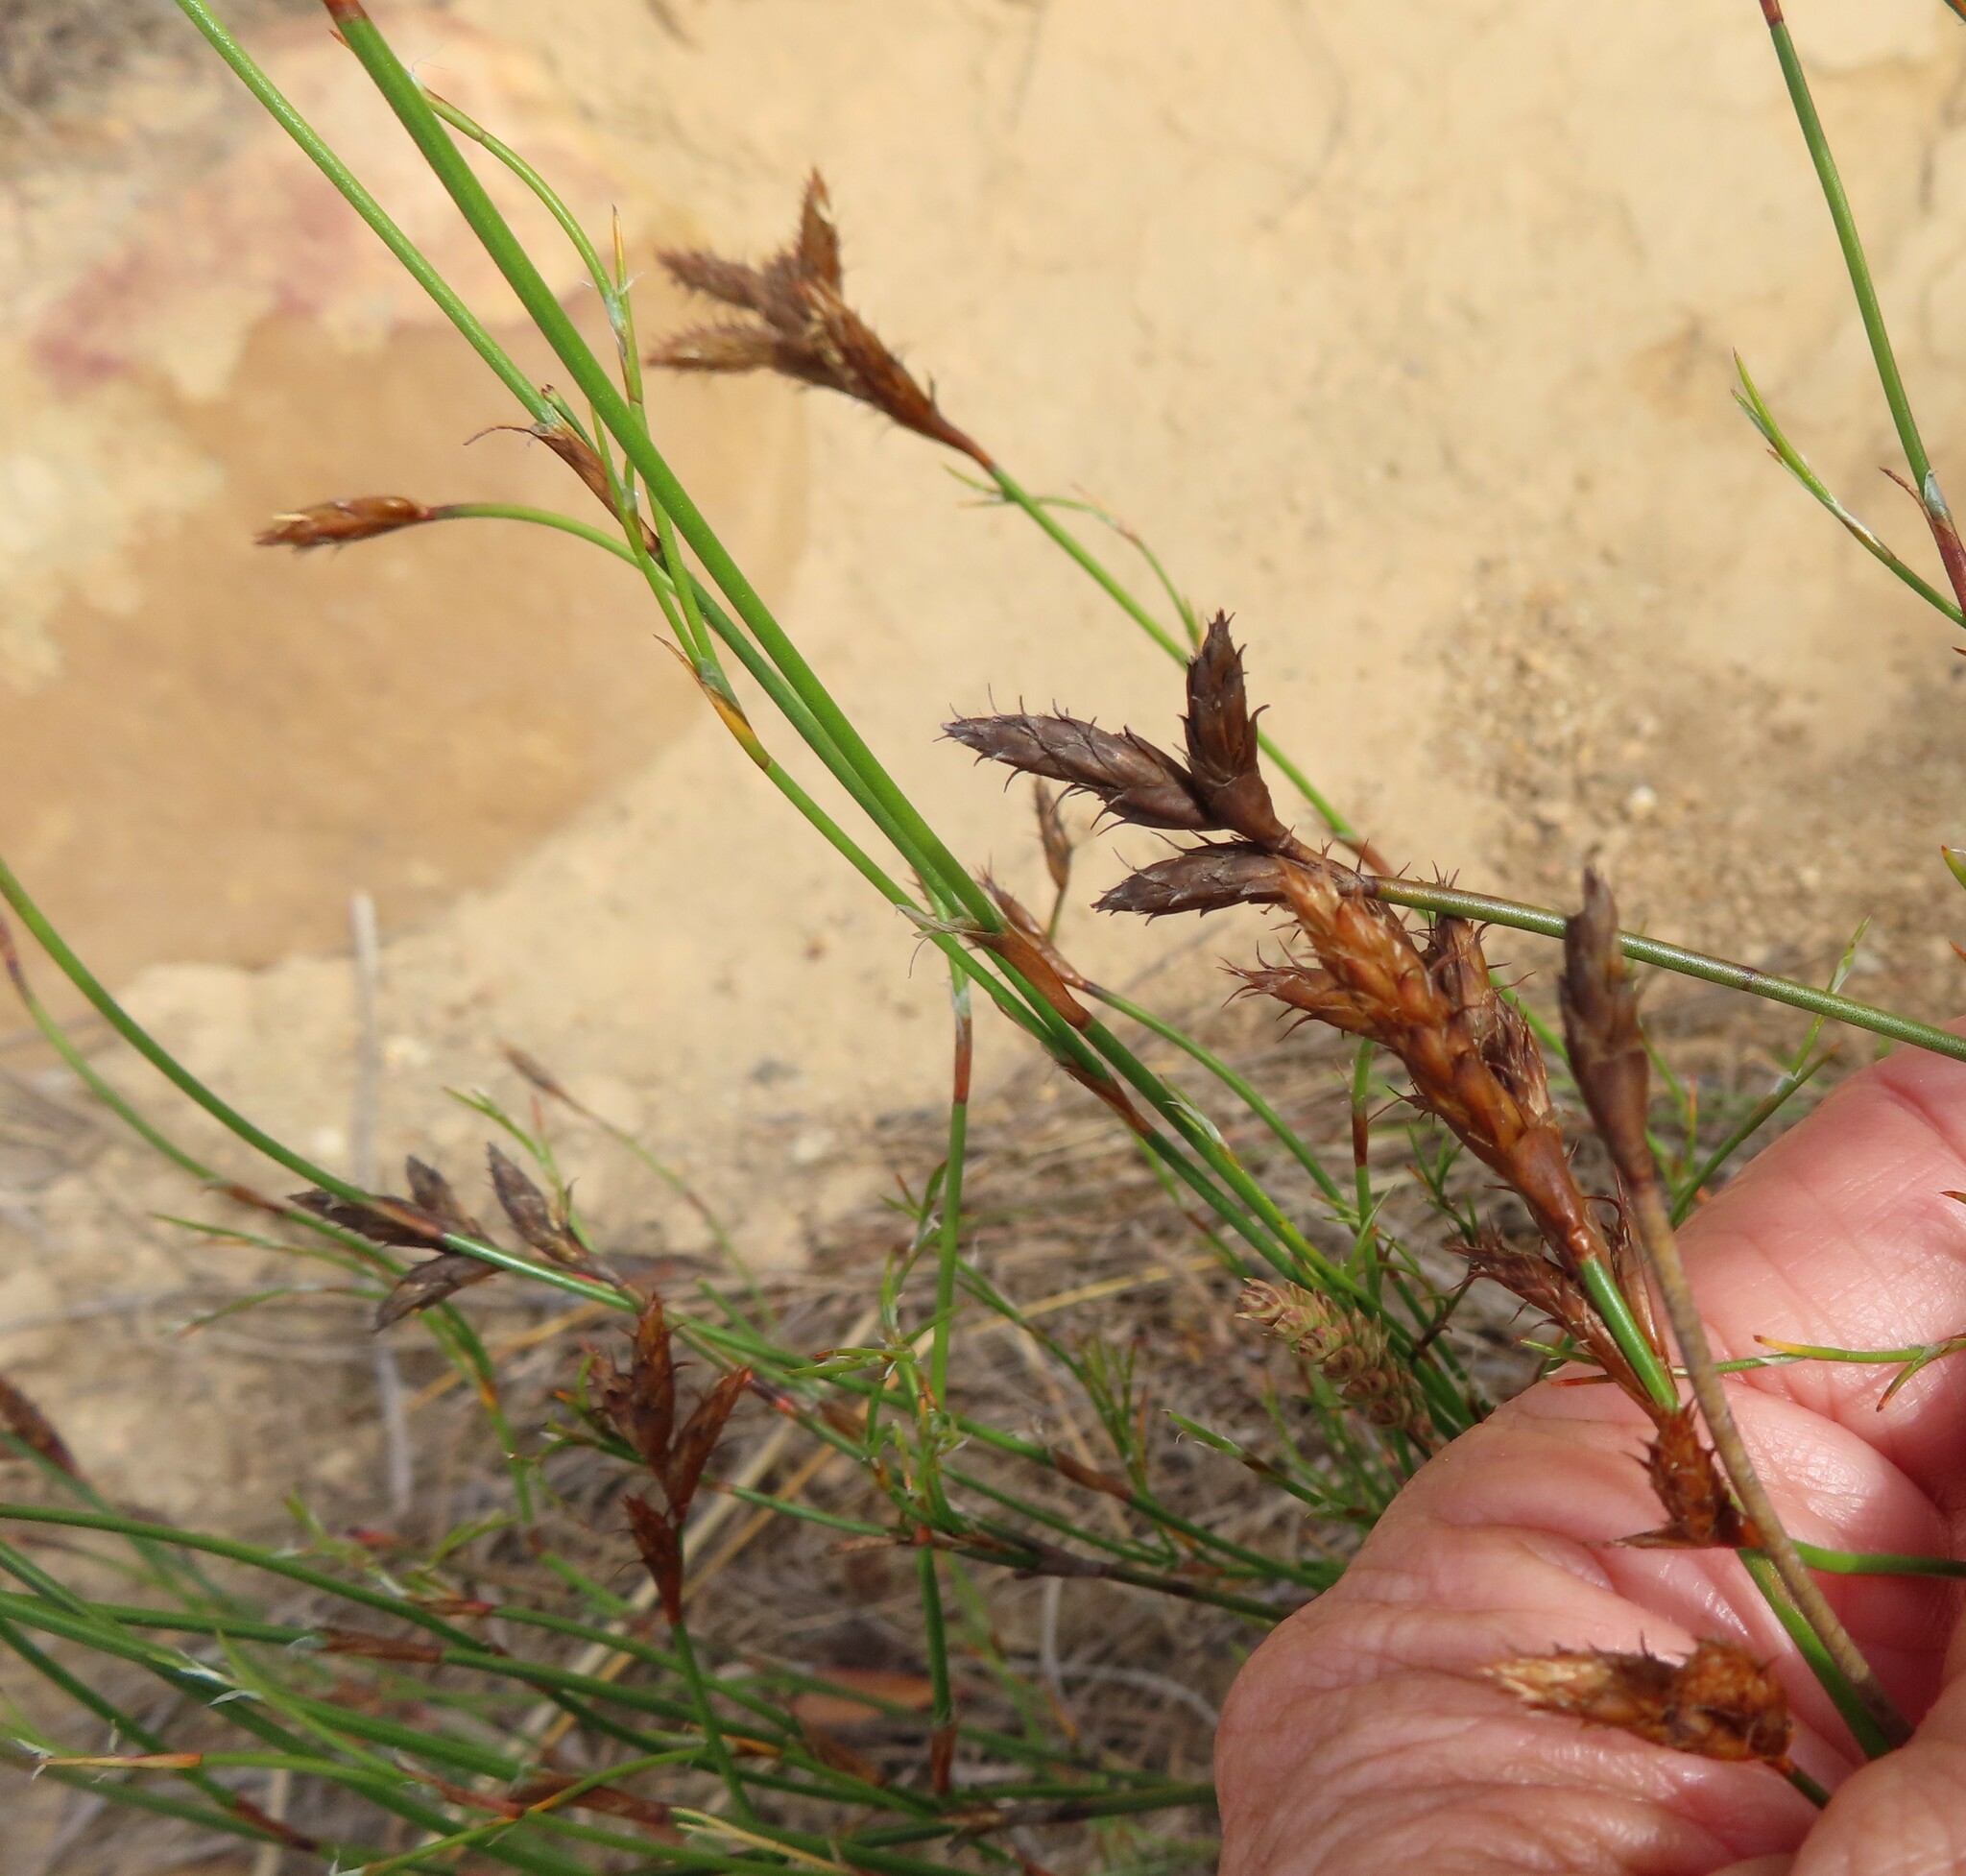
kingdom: Plantae
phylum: Tracheophyta
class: Liliopsida
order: Poales
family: Restionaceae
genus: Restio
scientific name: Restio capensis
